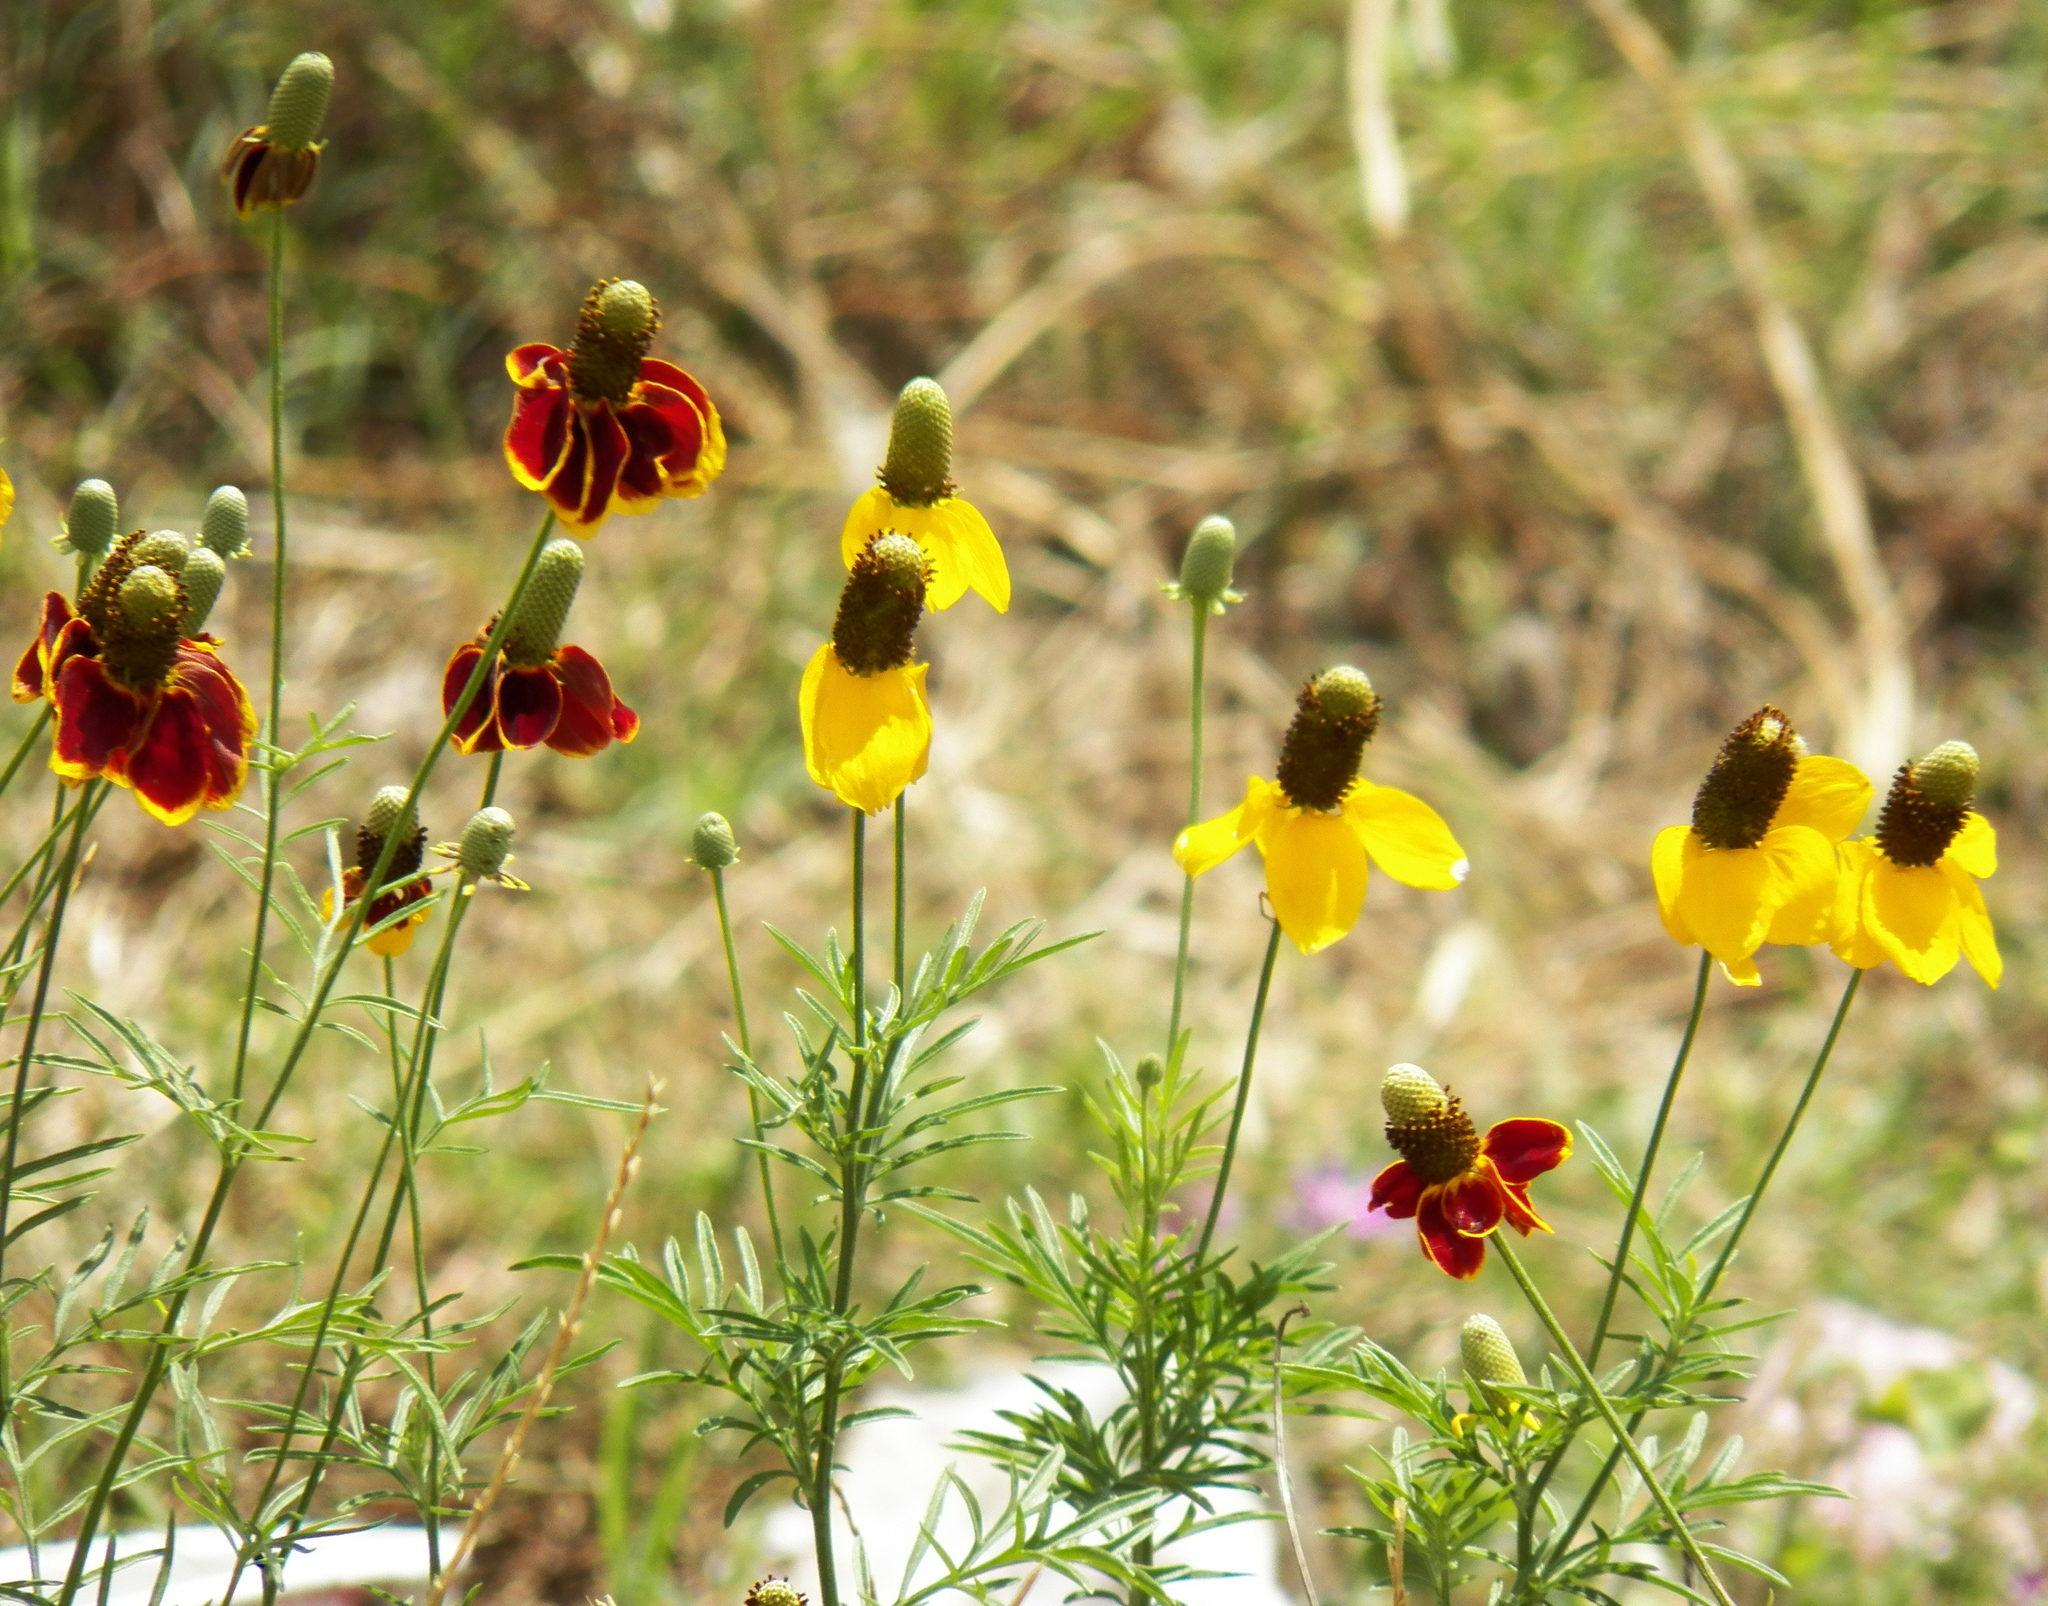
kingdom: Plantae
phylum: Tracheophyta
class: Magnoliopsida
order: Asterales
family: Asteraceae
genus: Ratibida
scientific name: Ratibida columnifera
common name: Prairie coneflower
